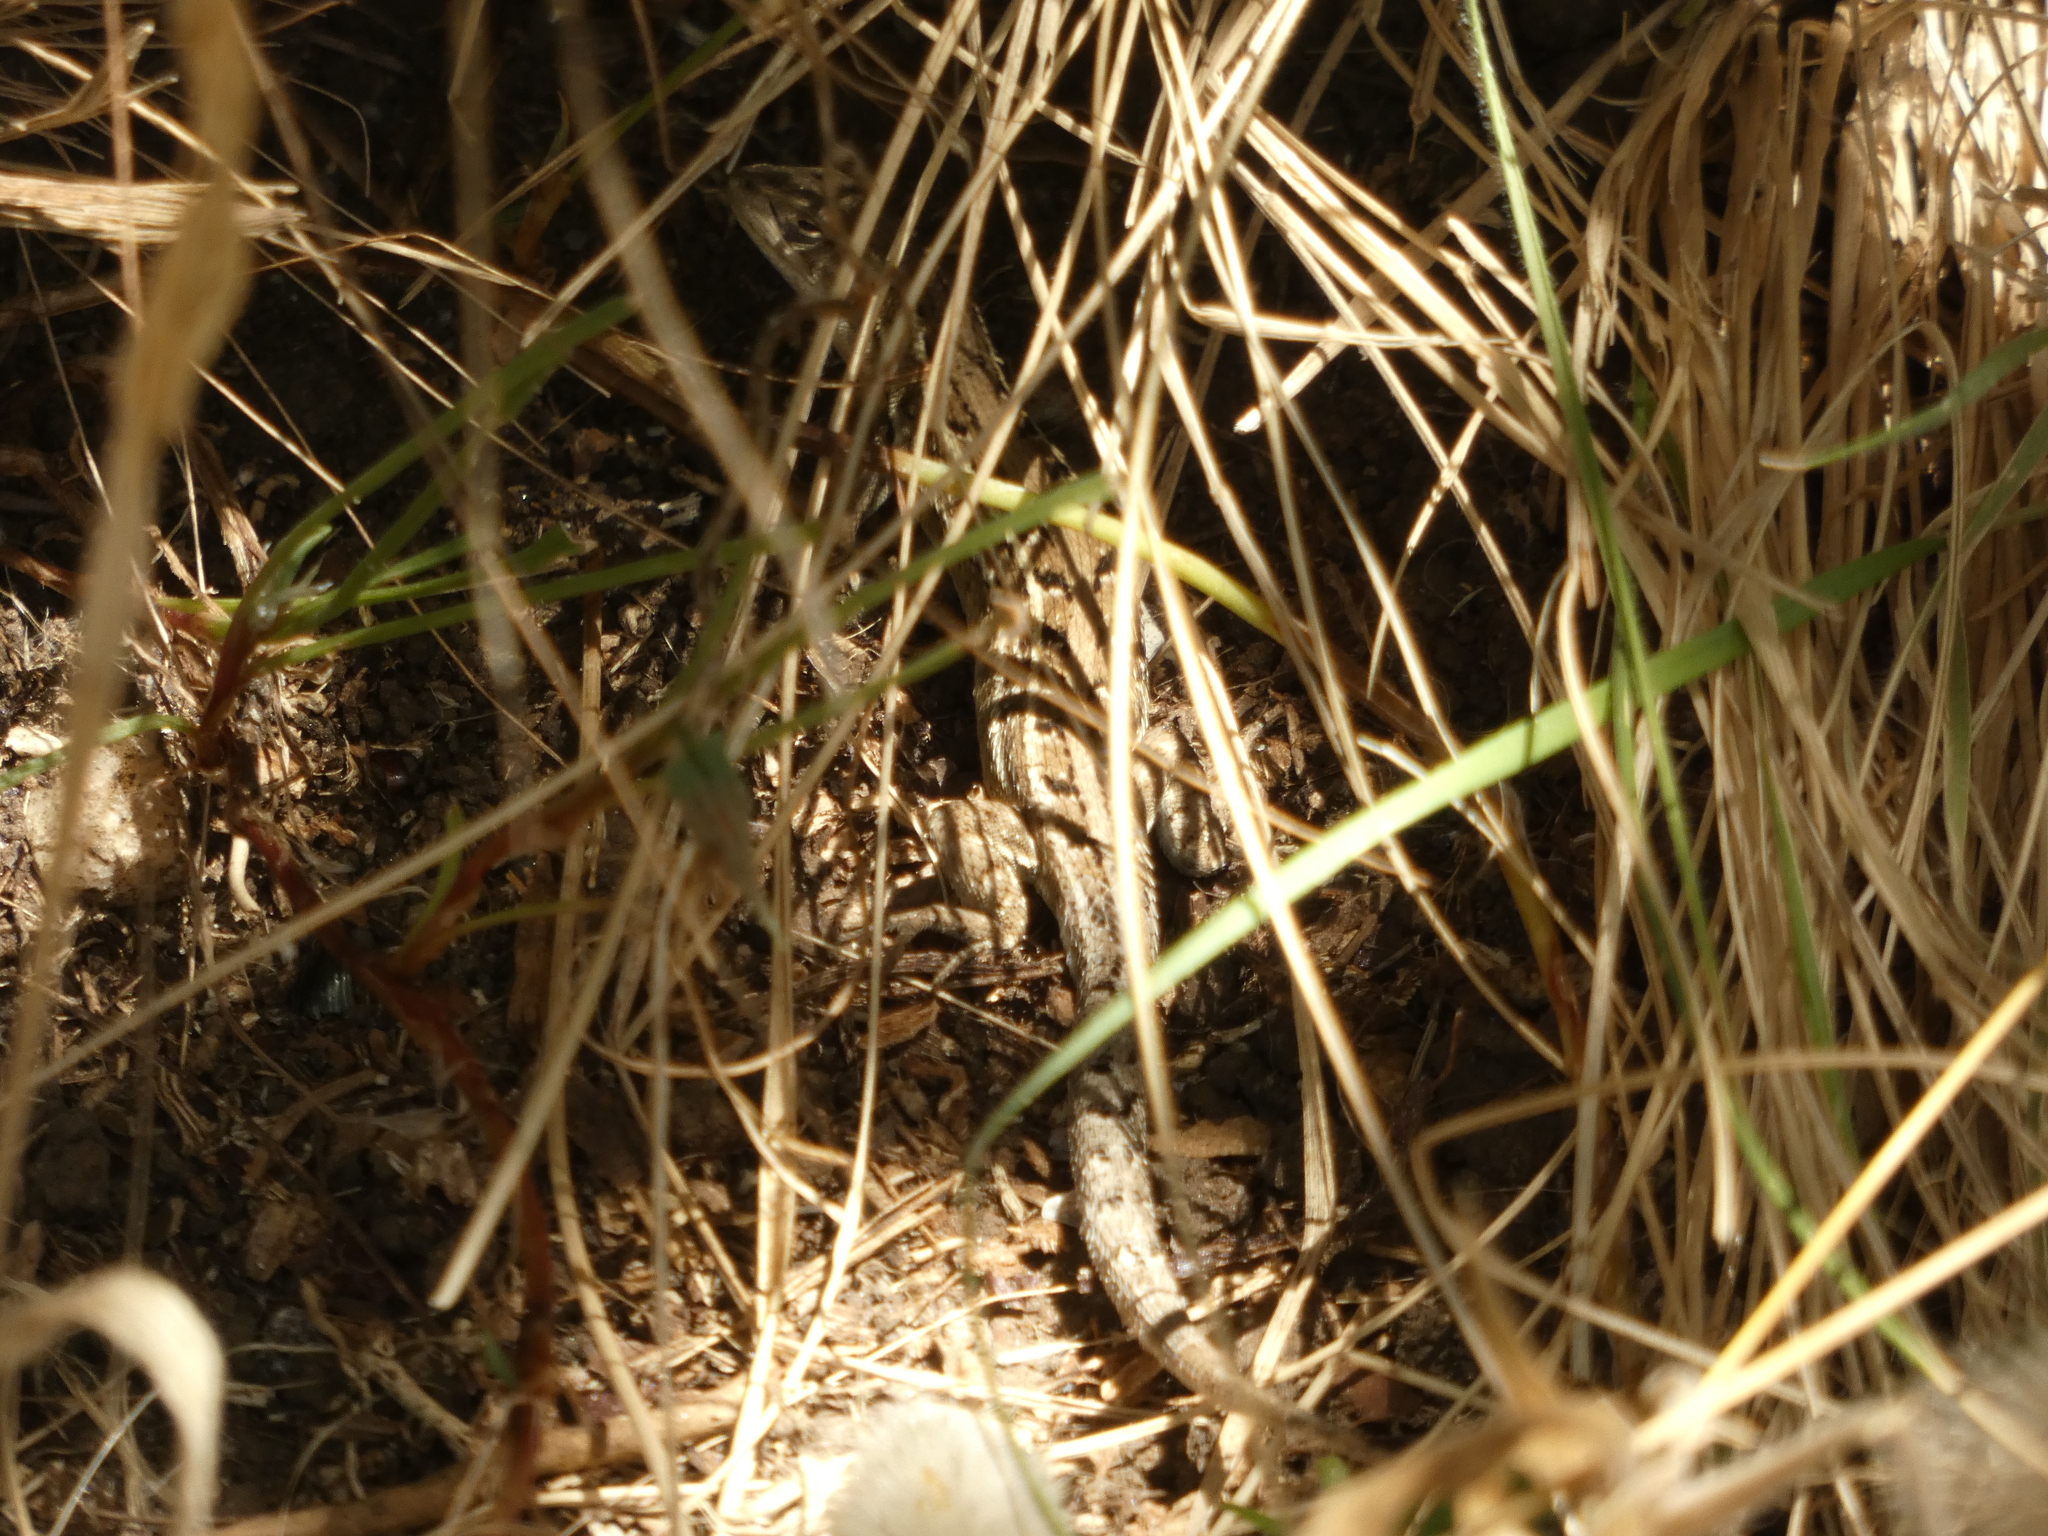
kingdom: Animalia
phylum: Chordata
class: Squamata
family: Liolaemidae
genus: Liolaemus
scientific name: Liolaemus lemniscatus
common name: Wreath tree iguana
